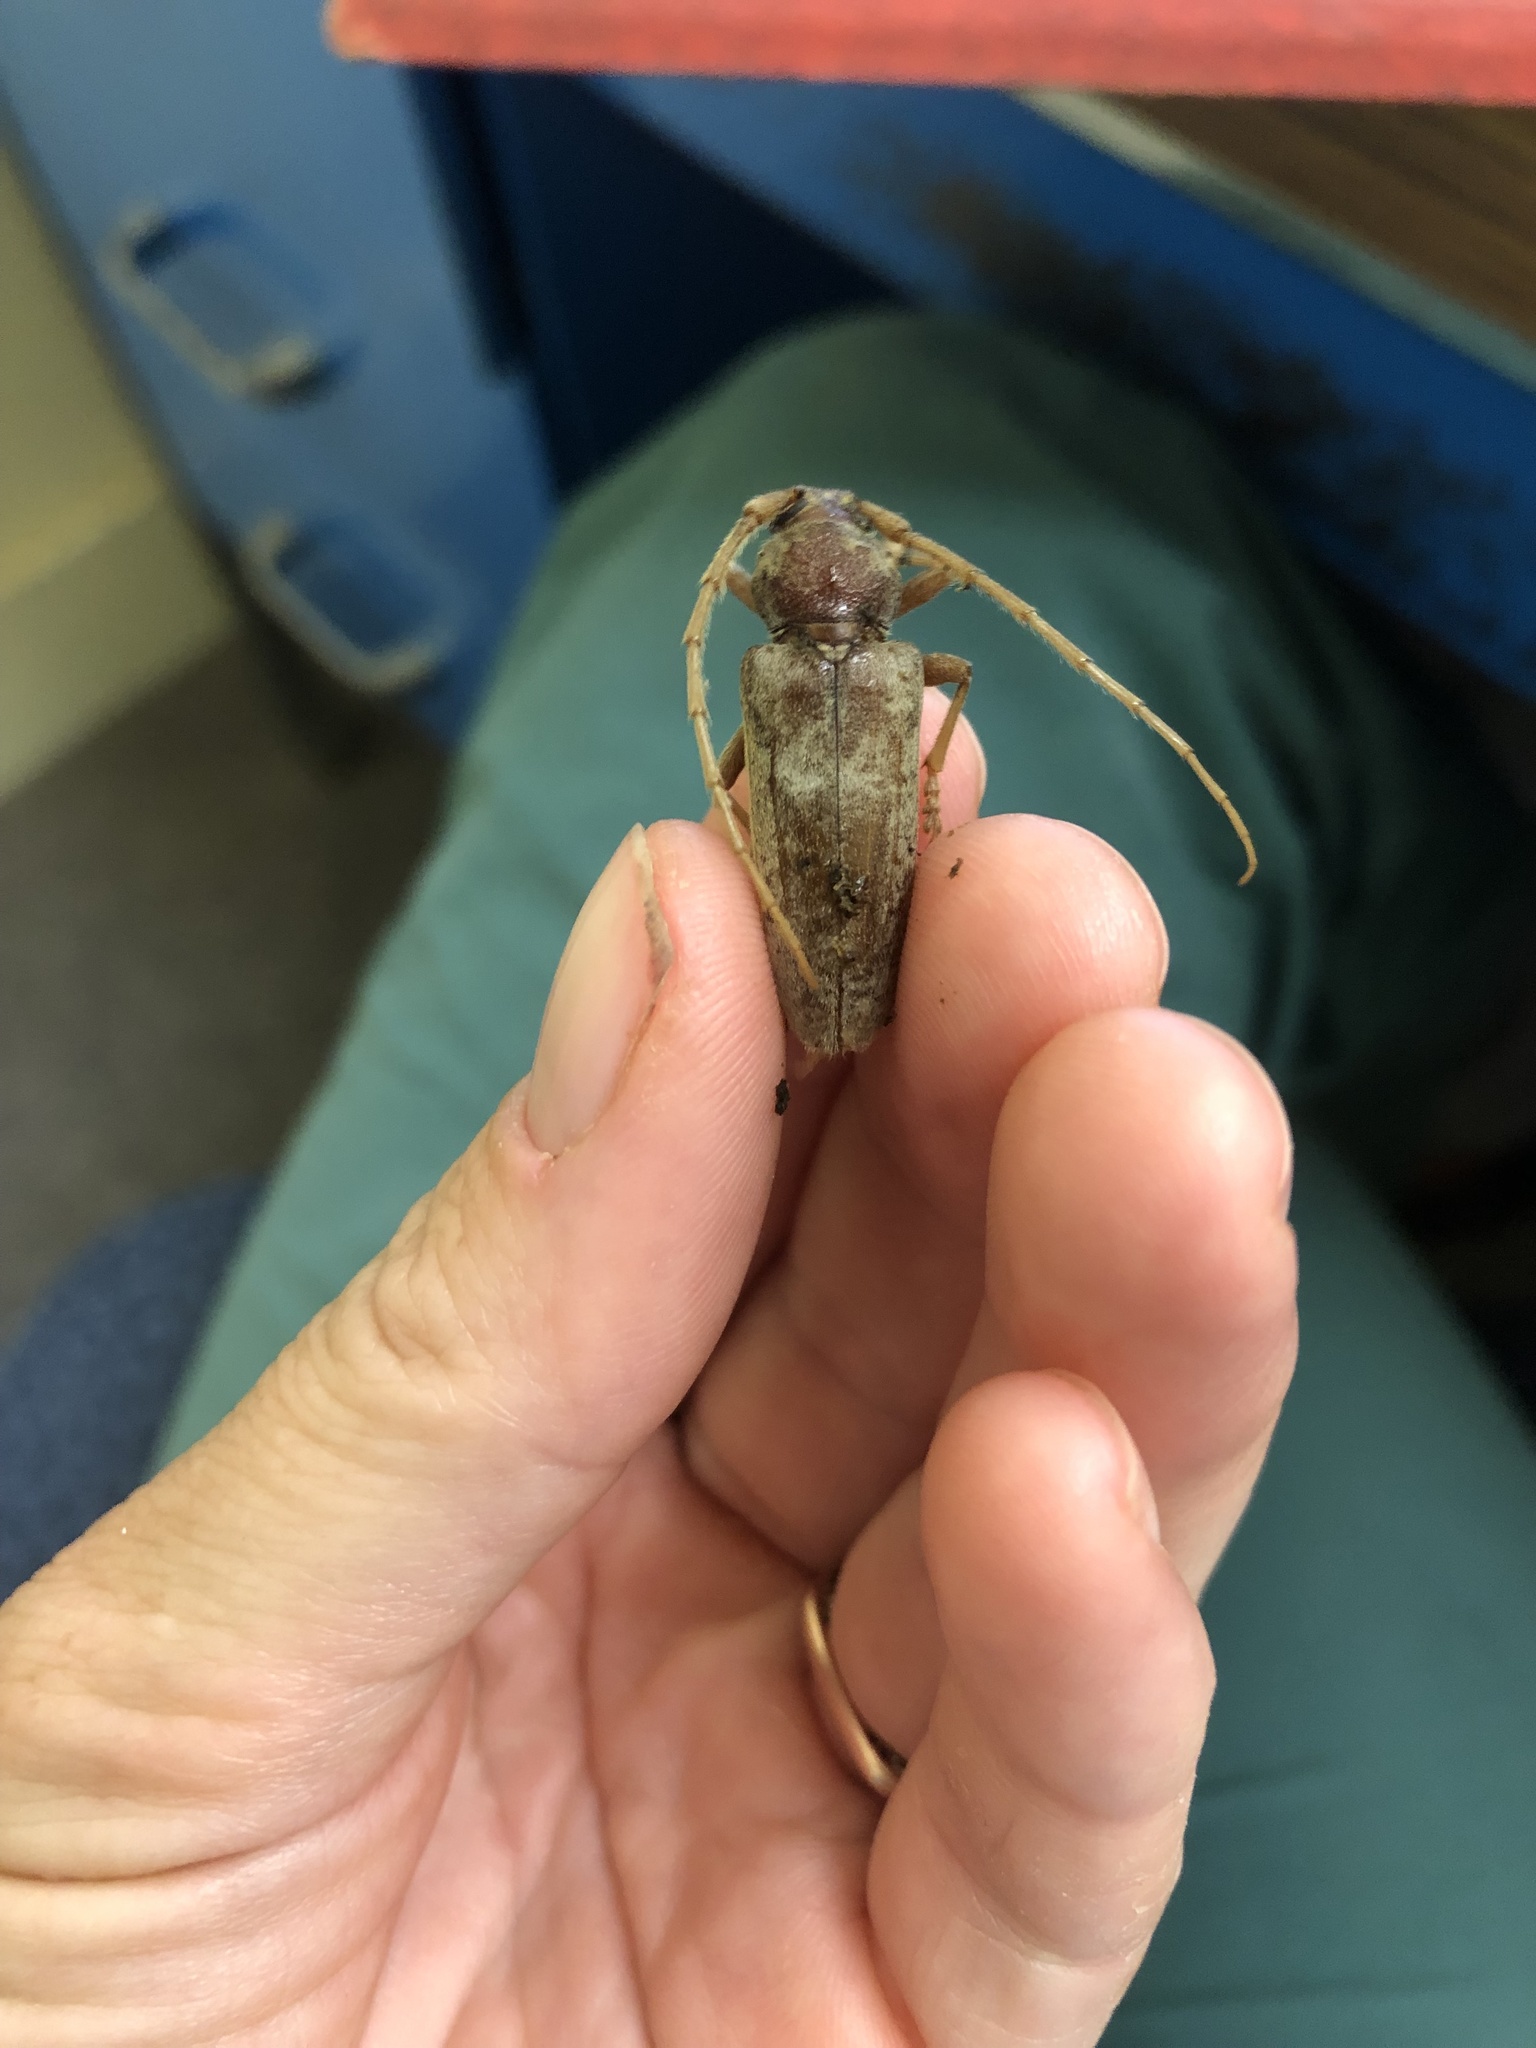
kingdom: Animalia
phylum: Arthropoda
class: Insecta
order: Coleoptera
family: Cerambycidae
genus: Enaphalodes
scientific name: Enaphalodes rufulus
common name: Red oak borer
